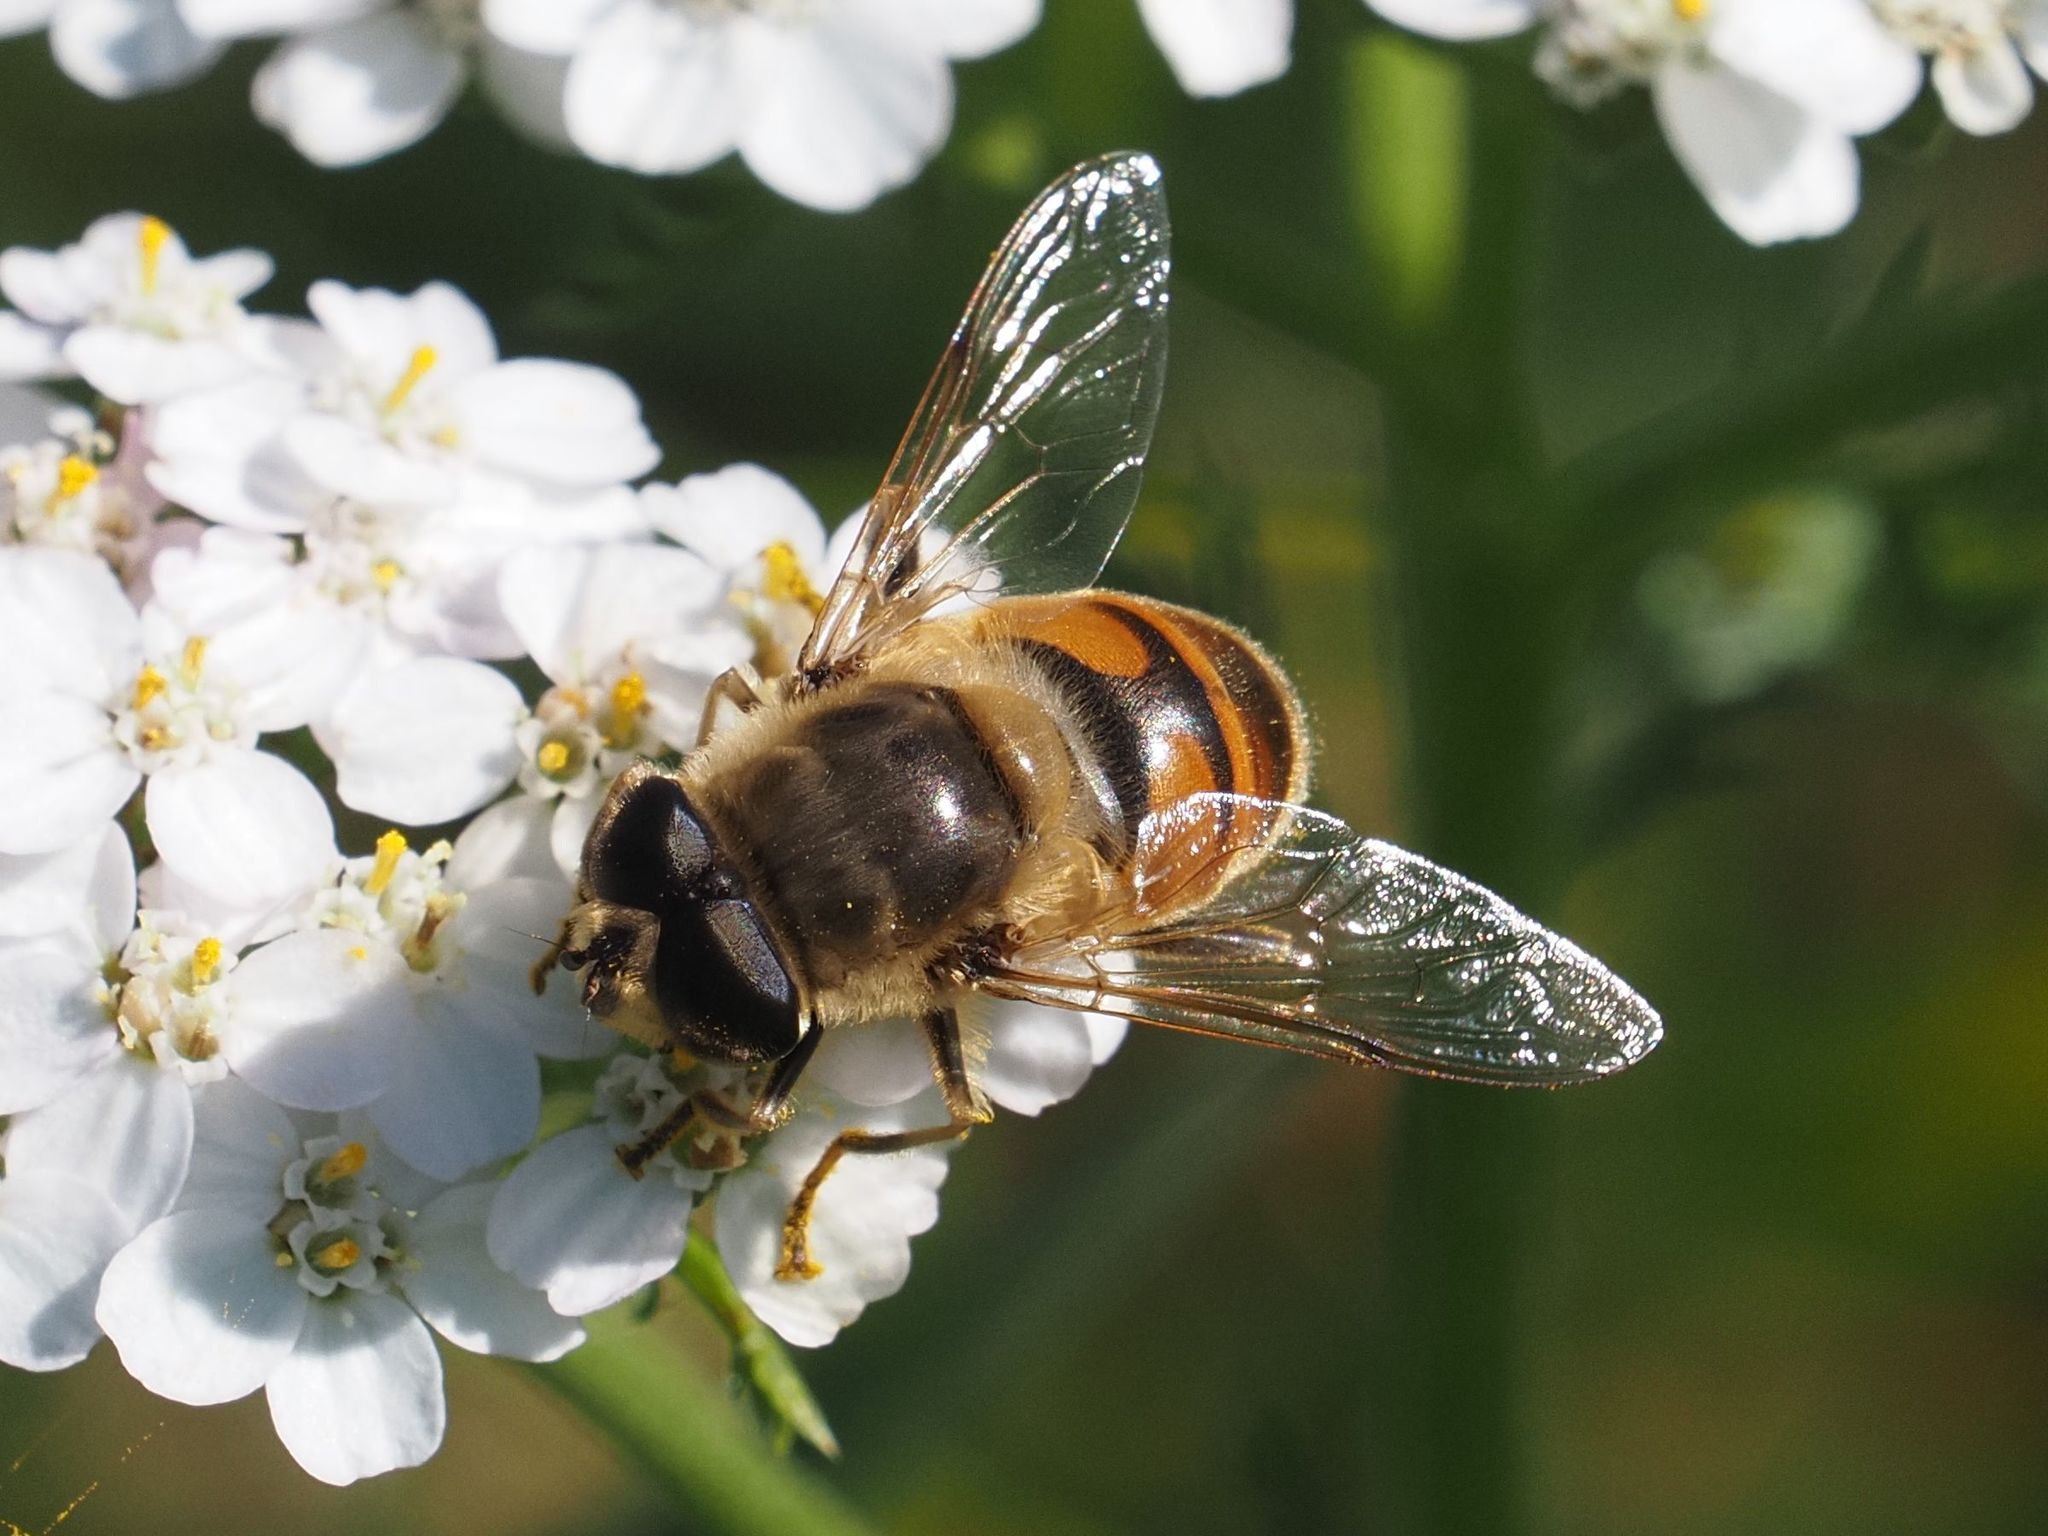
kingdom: Animalia
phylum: Arthropoda
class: Insecta
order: Diptera
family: Syrphidae
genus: Eristalis
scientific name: Eristalis tenax
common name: Drone fly
